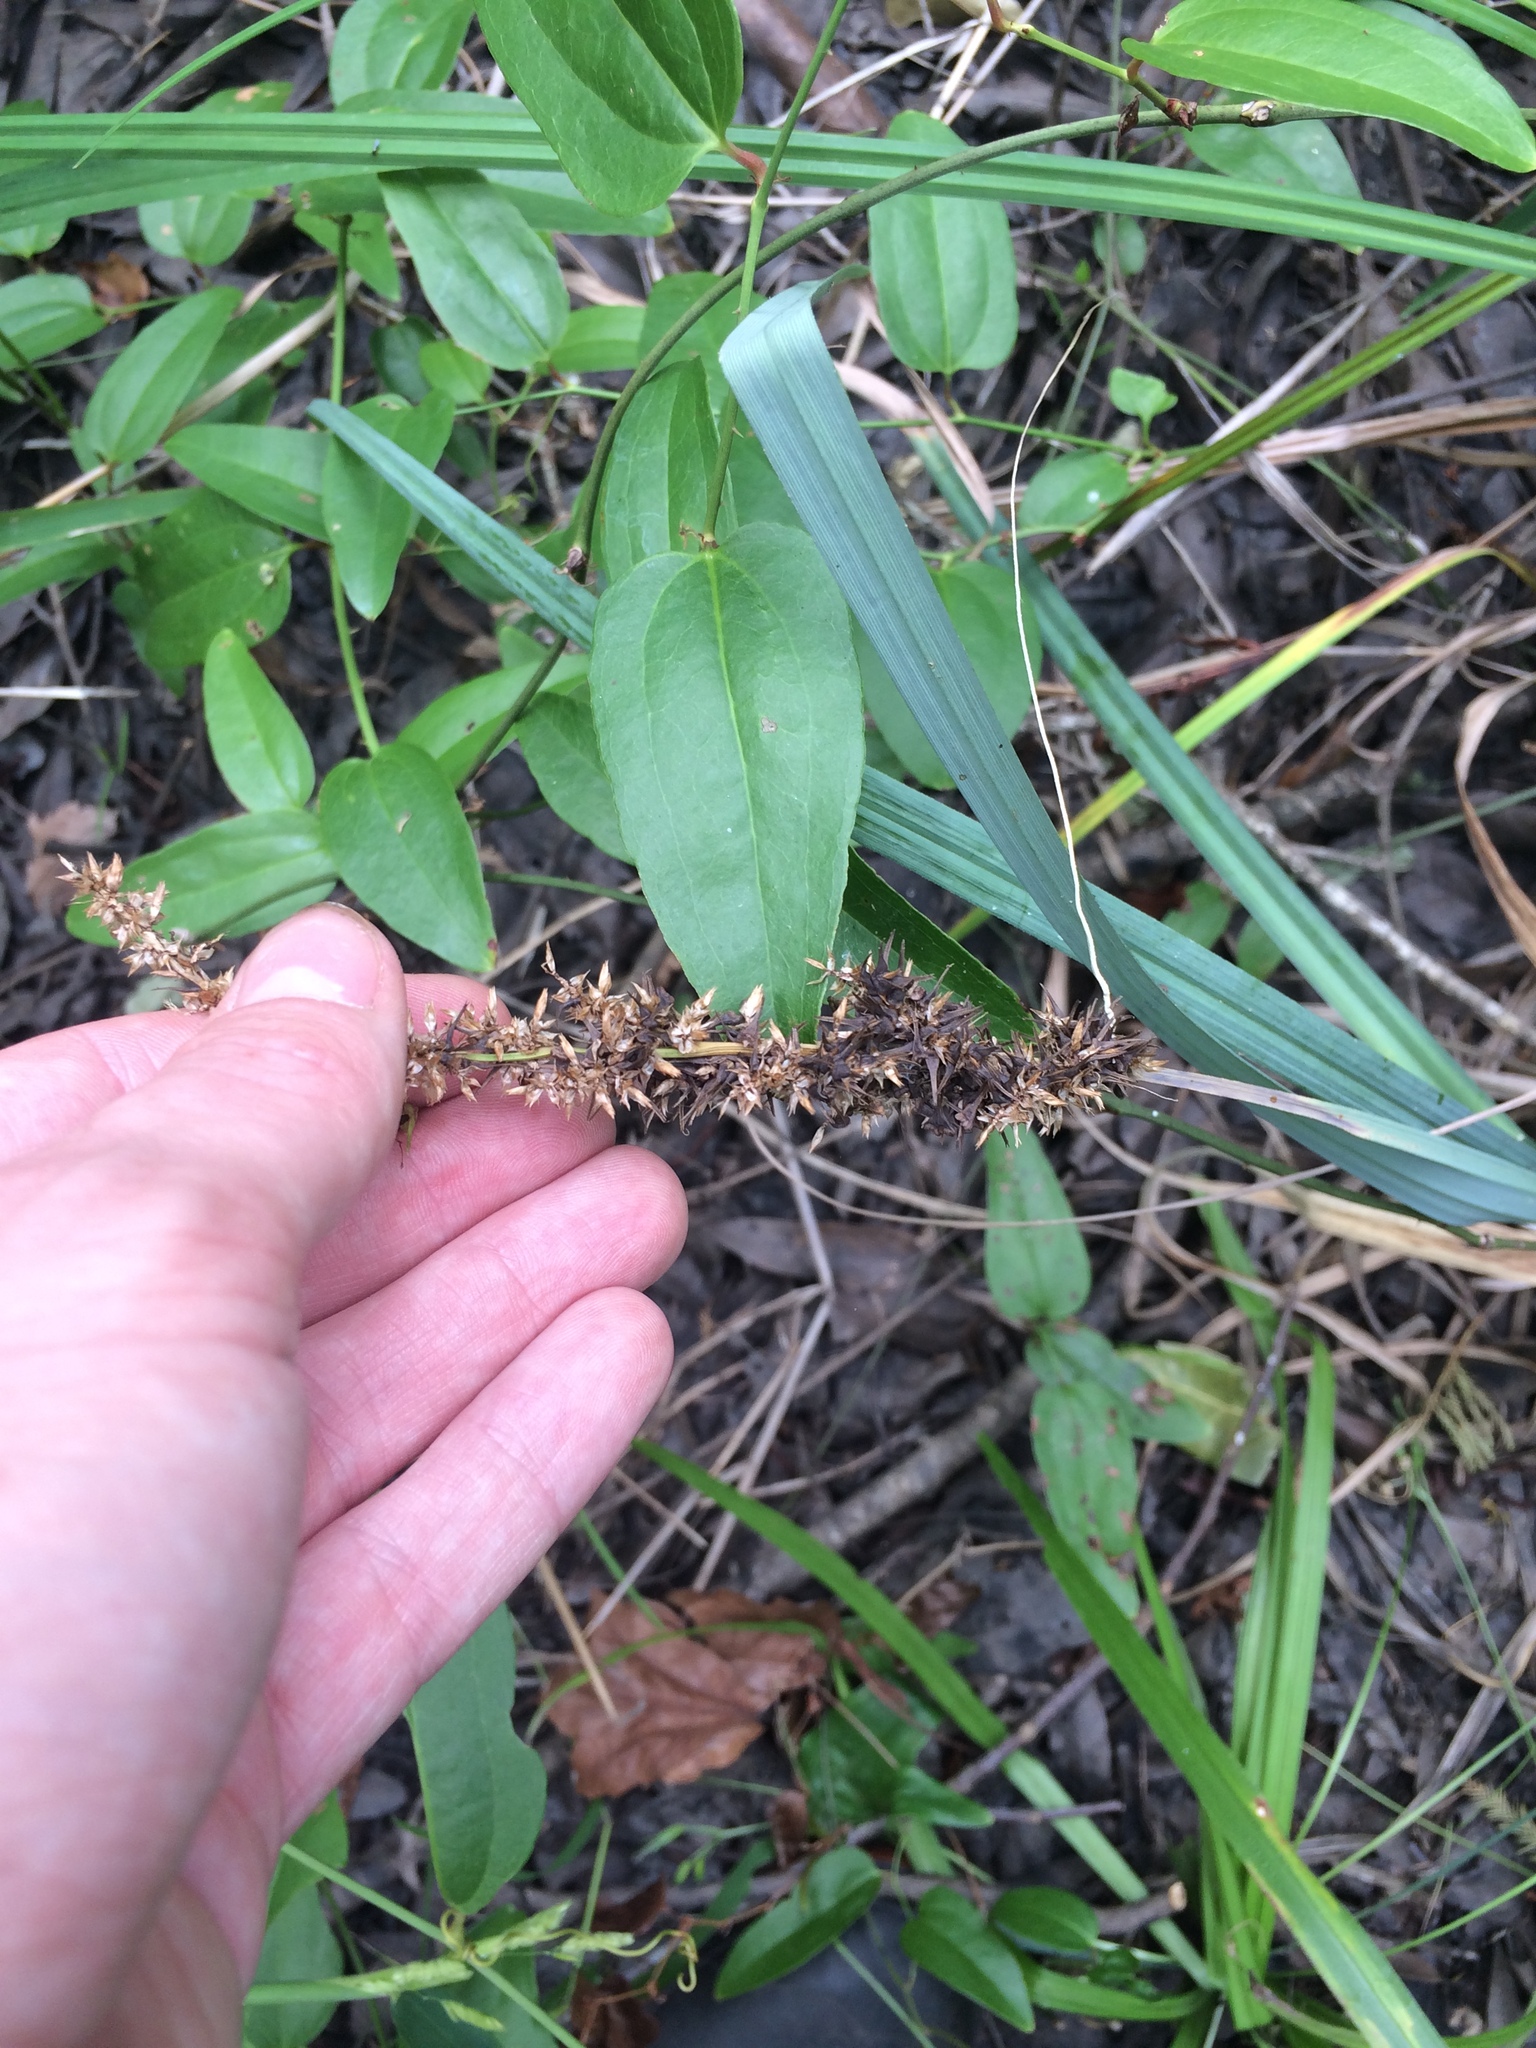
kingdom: Plantae
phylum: Tracheophyta
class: Liliopsida
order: Poales
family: Cyperaceae
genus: Carex
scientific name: Carex crus-corvi
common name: Crow-spur sedge
